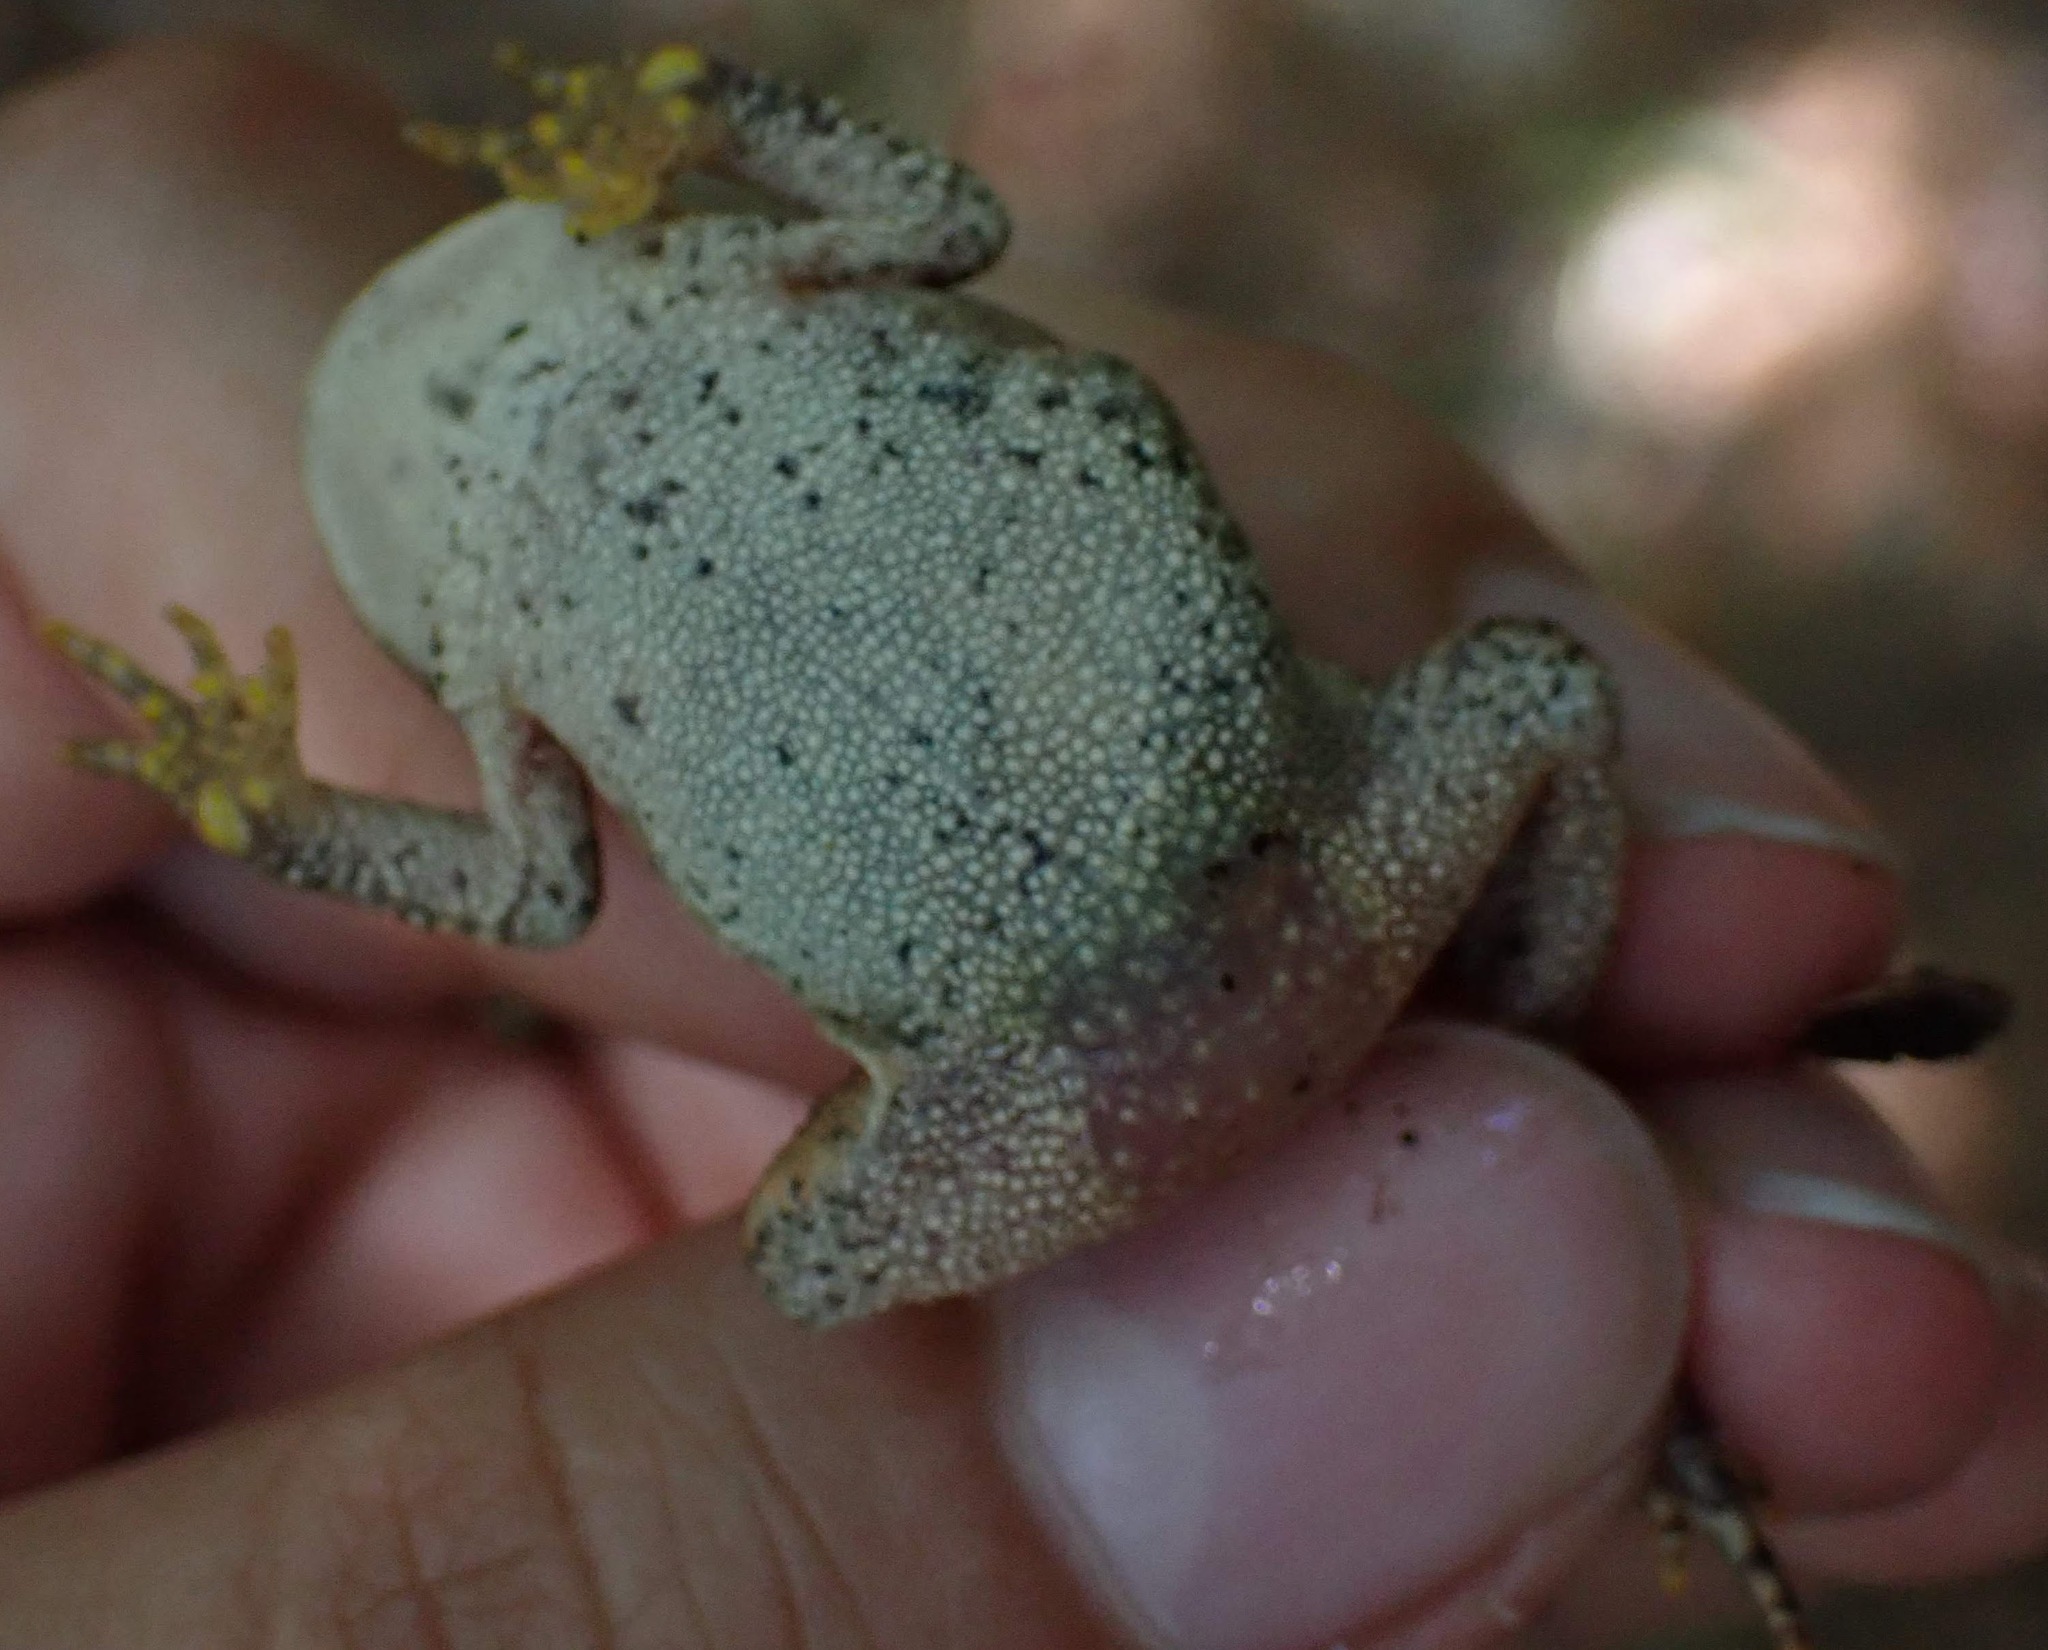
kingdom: Animalia
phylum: Chordata
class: Amphibia
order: Anura
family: Bufonidae
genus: Anaxyrus
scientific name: Anaxyrus americanus
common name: American toad
